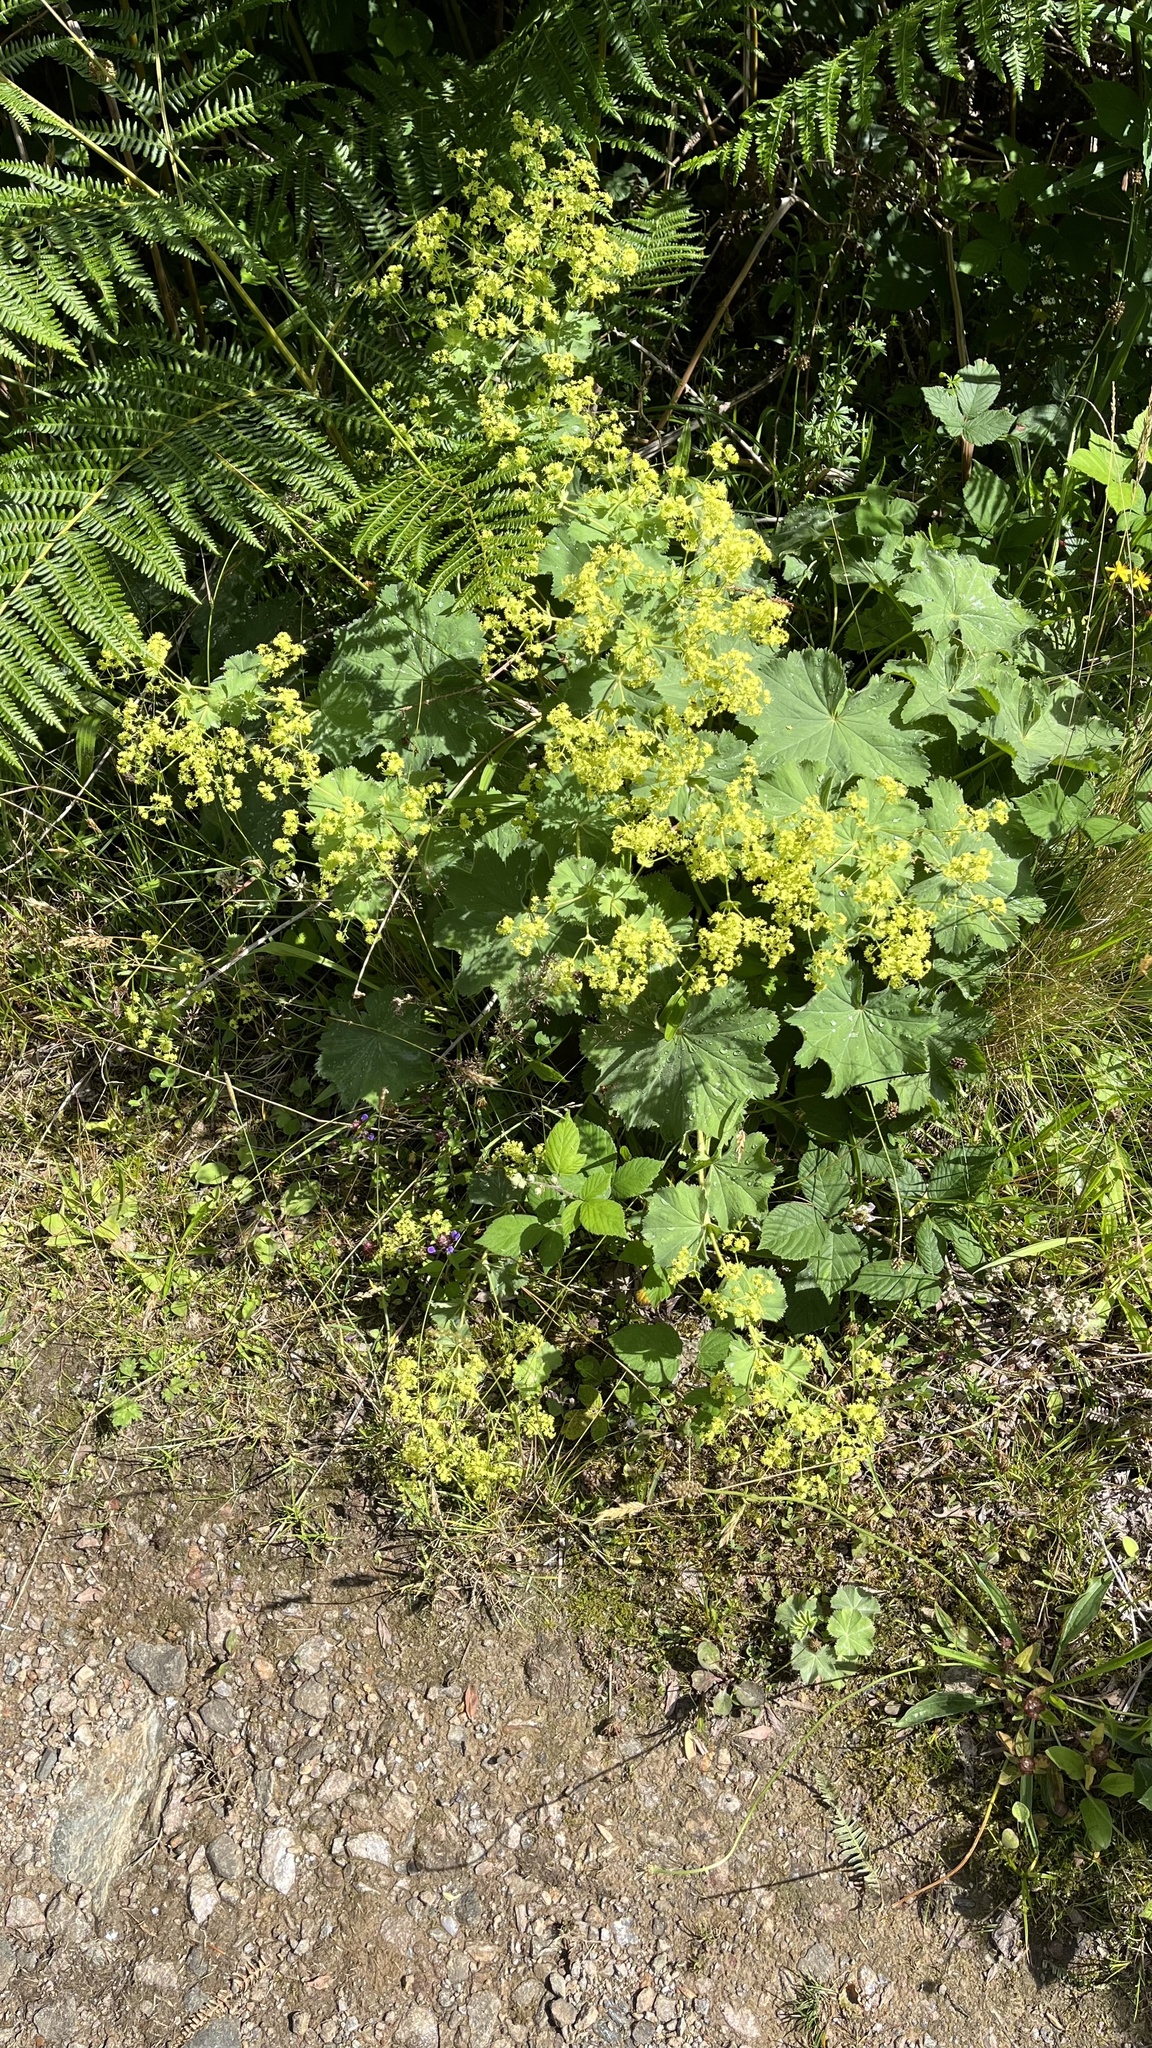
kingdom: Plantae
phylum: Tracheophyta
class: Magnoliopsida
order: Rosales
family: Rosaceae
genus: Alchemilla
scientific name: Alchemilla mollis
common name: Lady's-mantle
